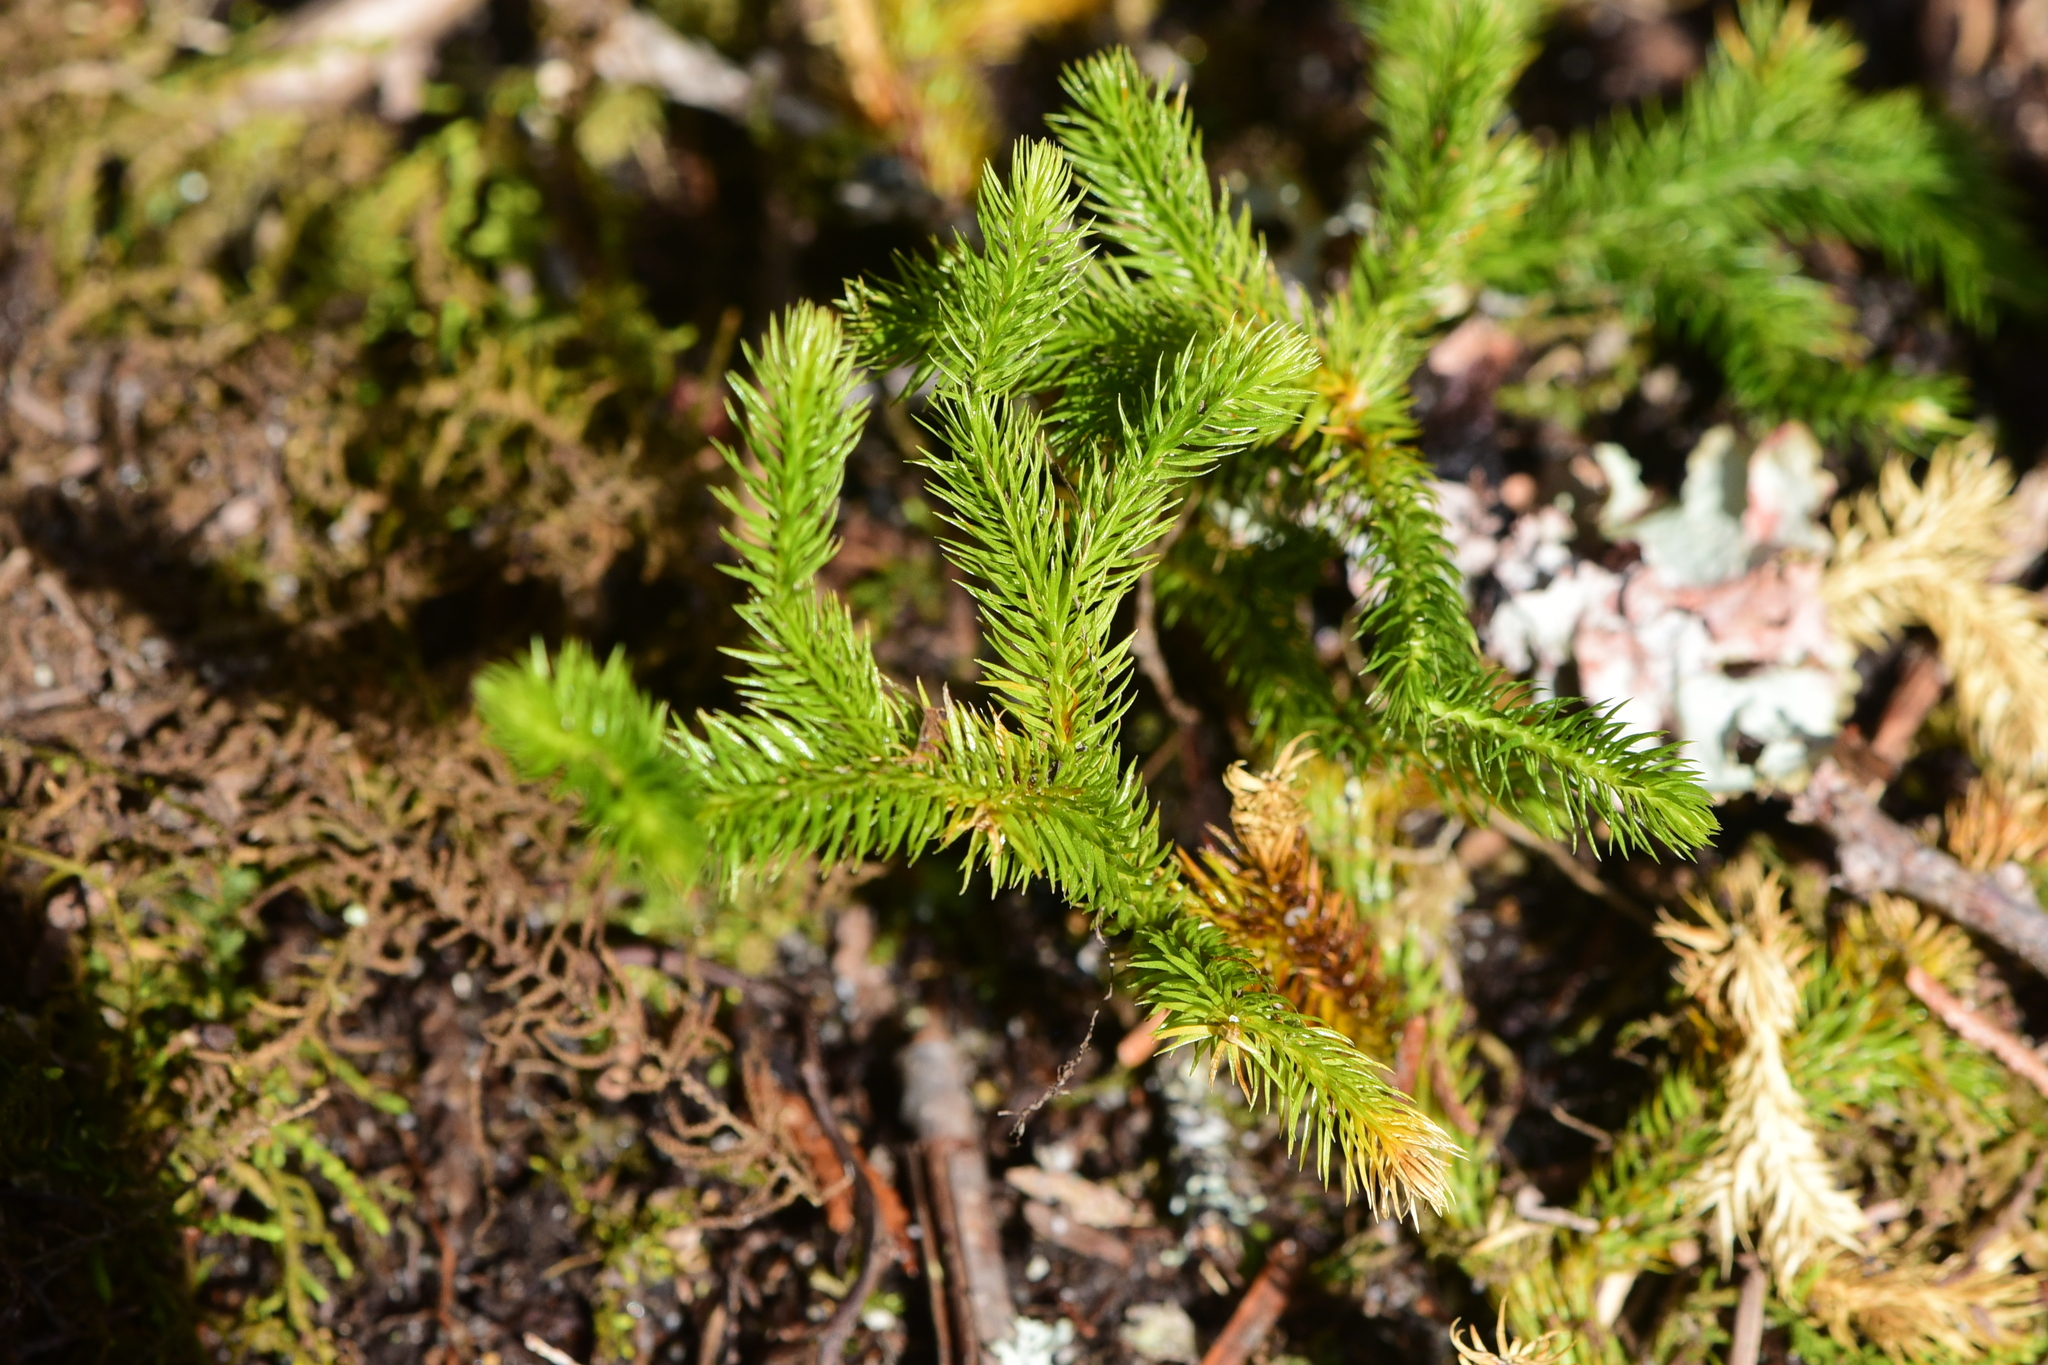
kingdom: Plantae
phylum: Tracheophyta
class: Lycopodiopsida
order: Lycopodiales
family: Lycopodiaceae
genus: Lycopodium
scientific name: Lycopodium clavatum
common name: Stag's-horn clubmoss
